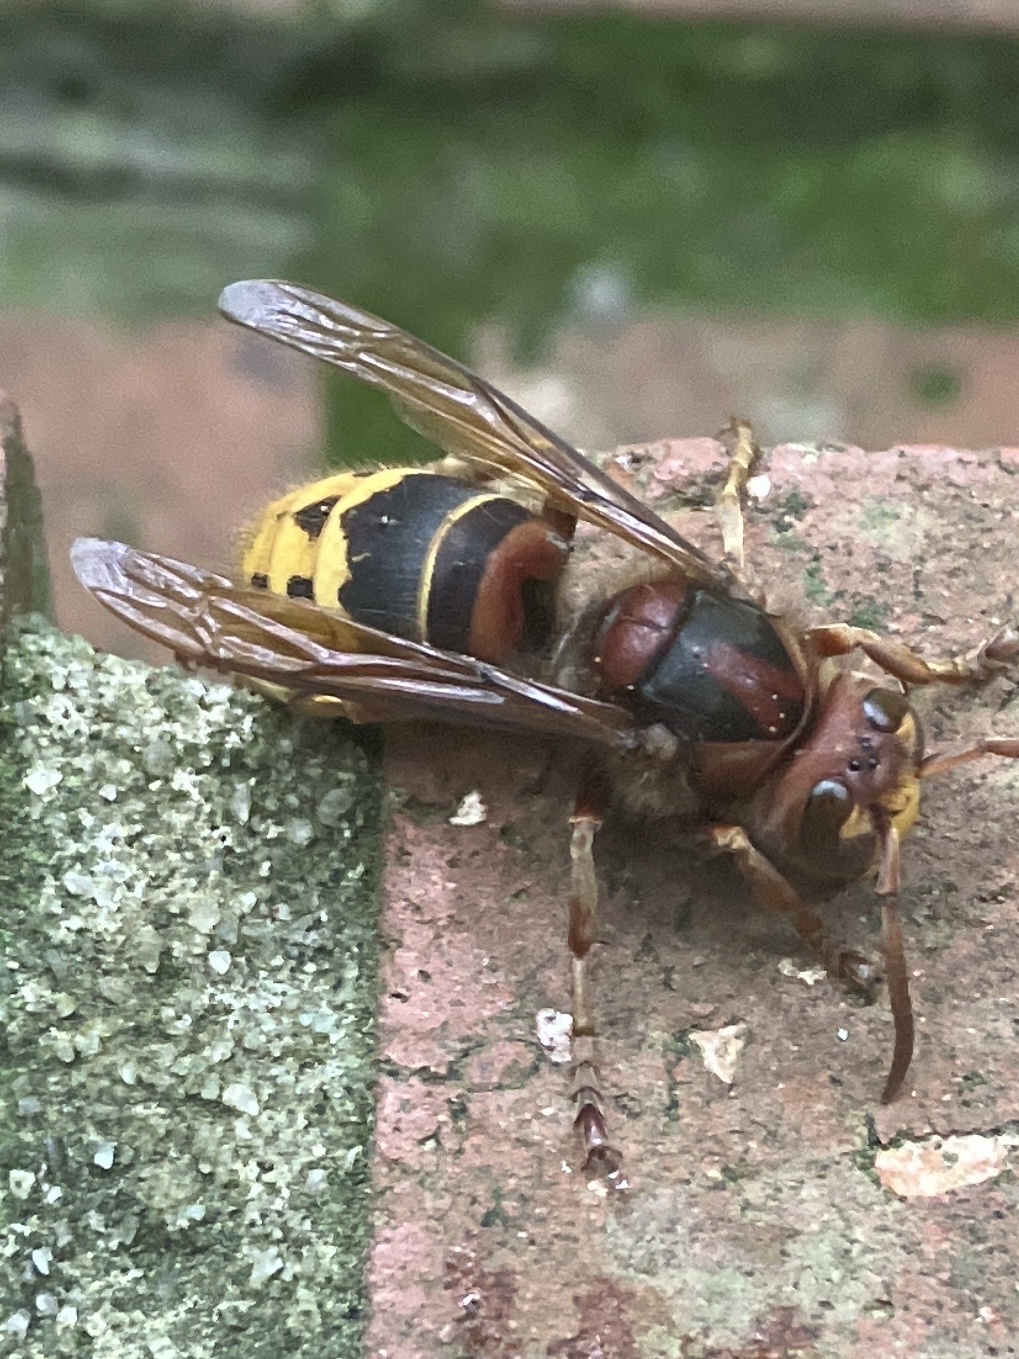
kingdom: Animalia
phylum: Arthropoda
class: Insecta
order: Hymenoptera
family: Vespidae
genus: Vespa
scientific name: Vespa crabro
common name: Hornet
